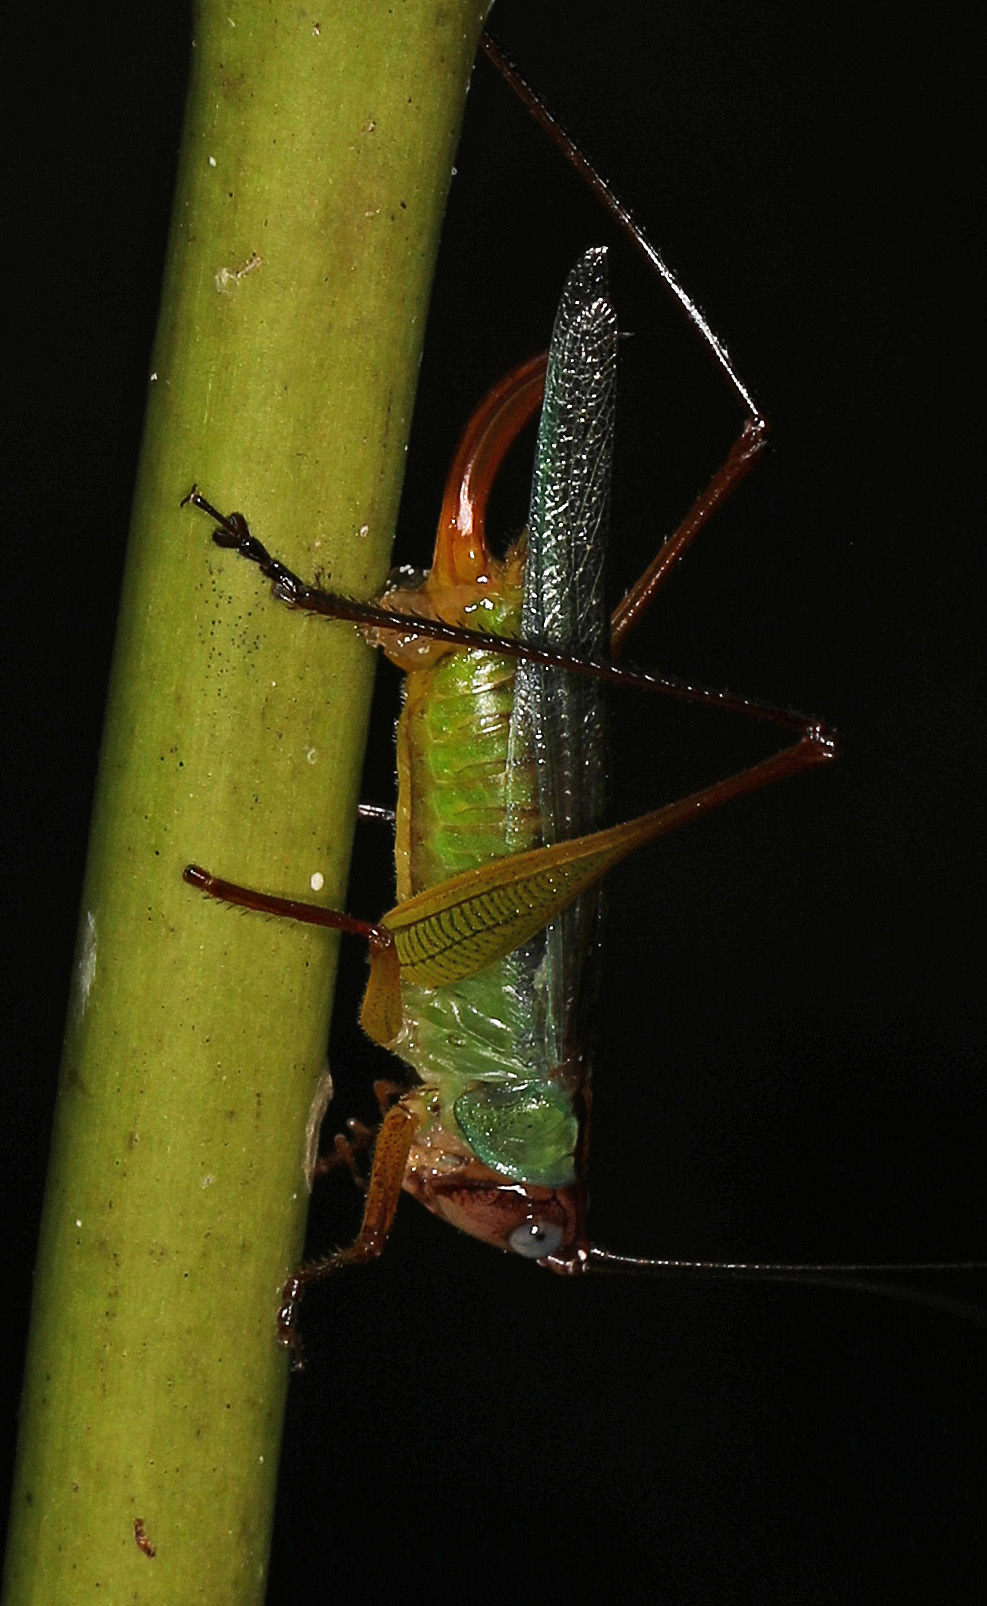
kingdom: Animalia
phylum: Arthropoda
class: Insecta
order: Orthoptera
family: Tettigoniidae
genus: Orchelimum
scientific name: Orchelimum pulchellum
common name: Handsome meadow katydid
